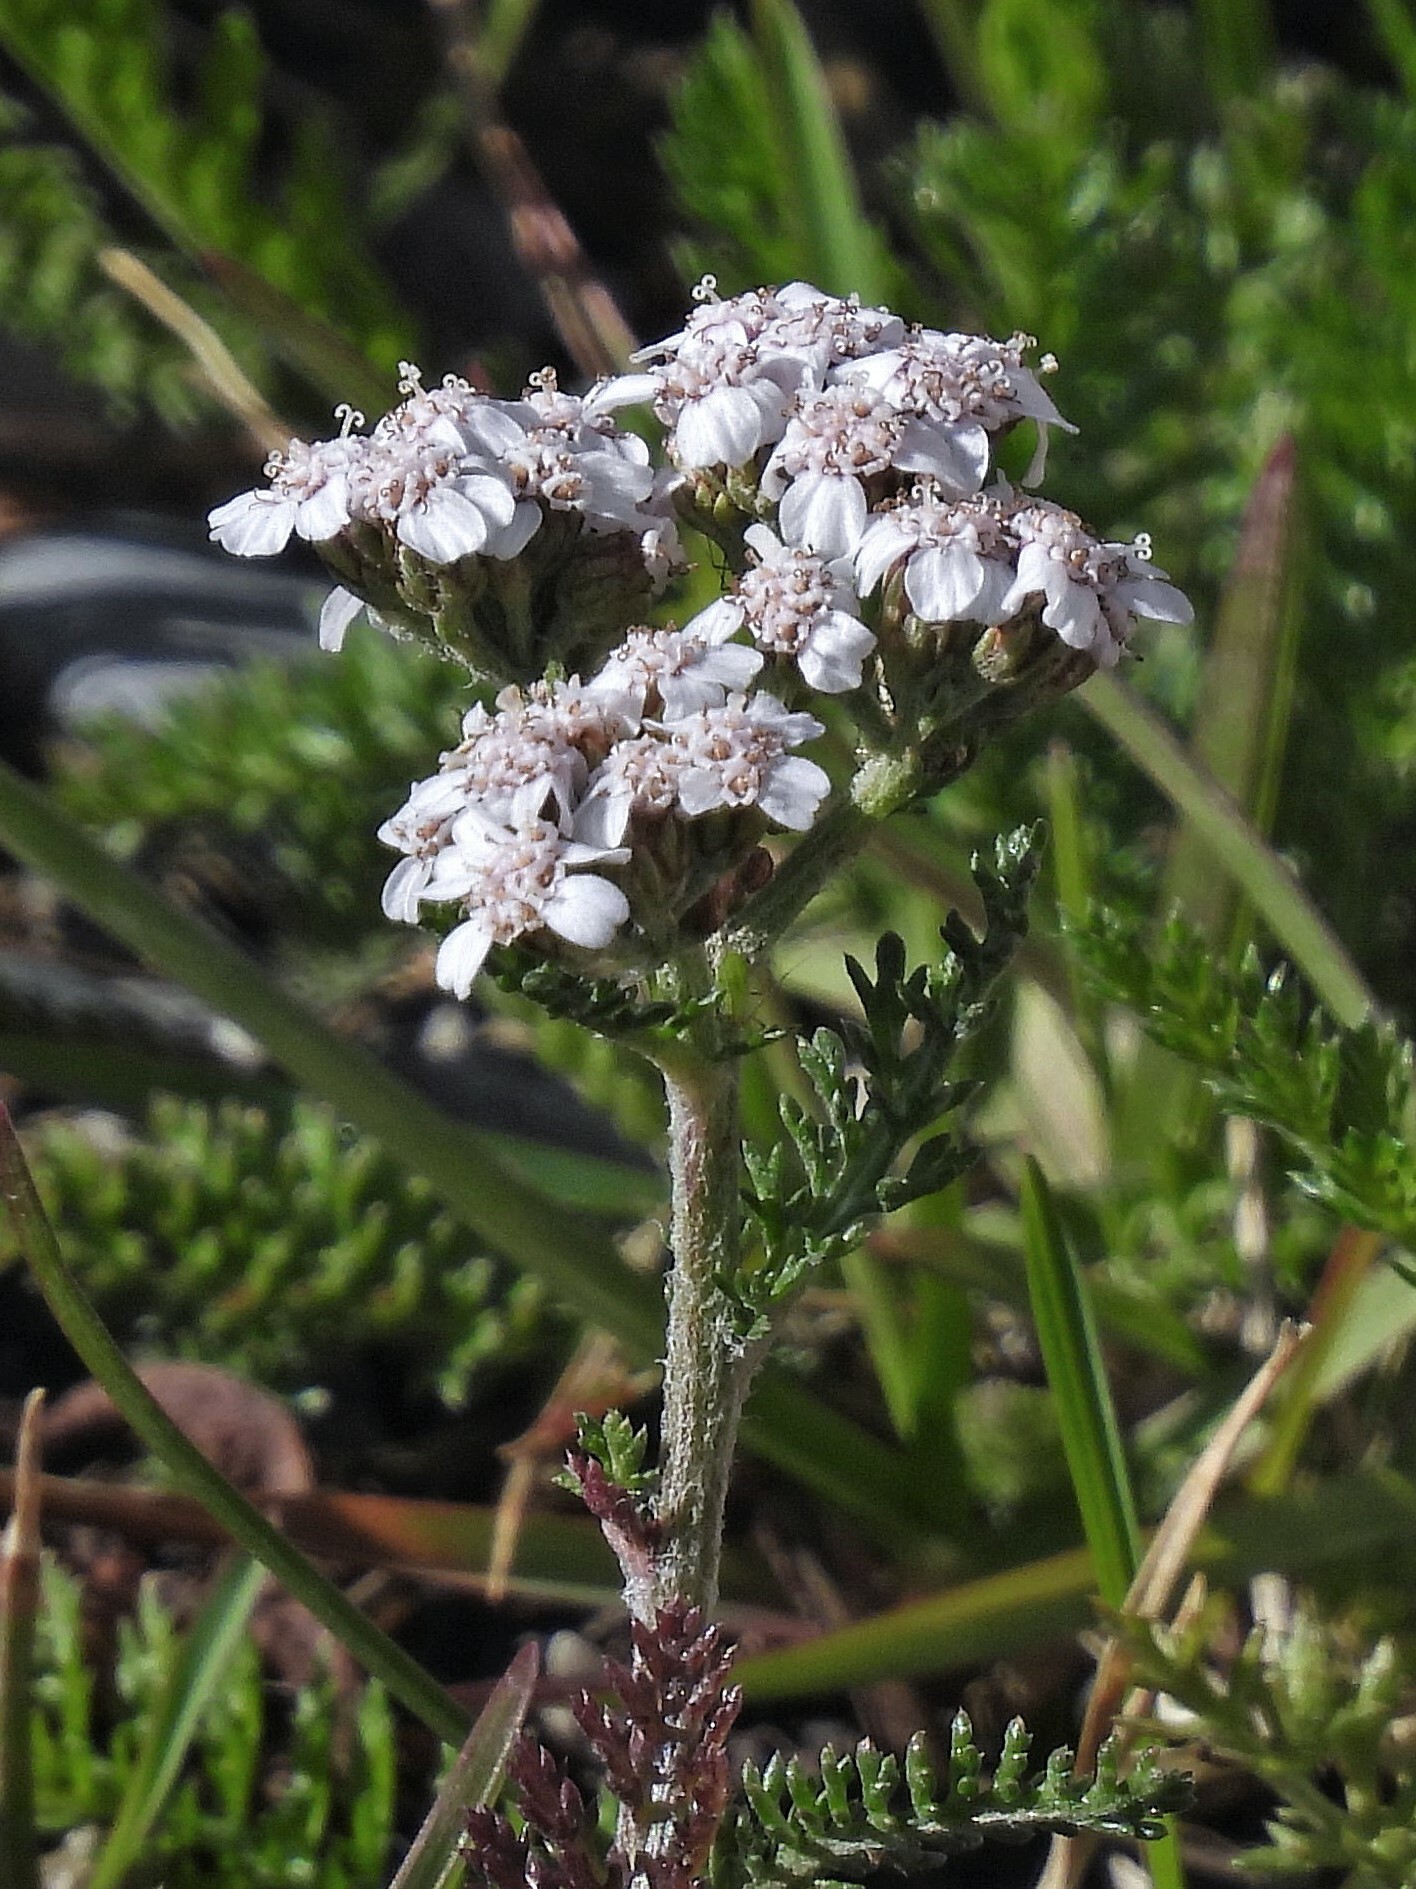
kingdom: Plantae
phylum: Tracheophyta
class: Magnoliopsida
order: Asterales
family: Asteraceae
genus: Achillea
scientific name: Achillea millefolium
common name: Yarrow
